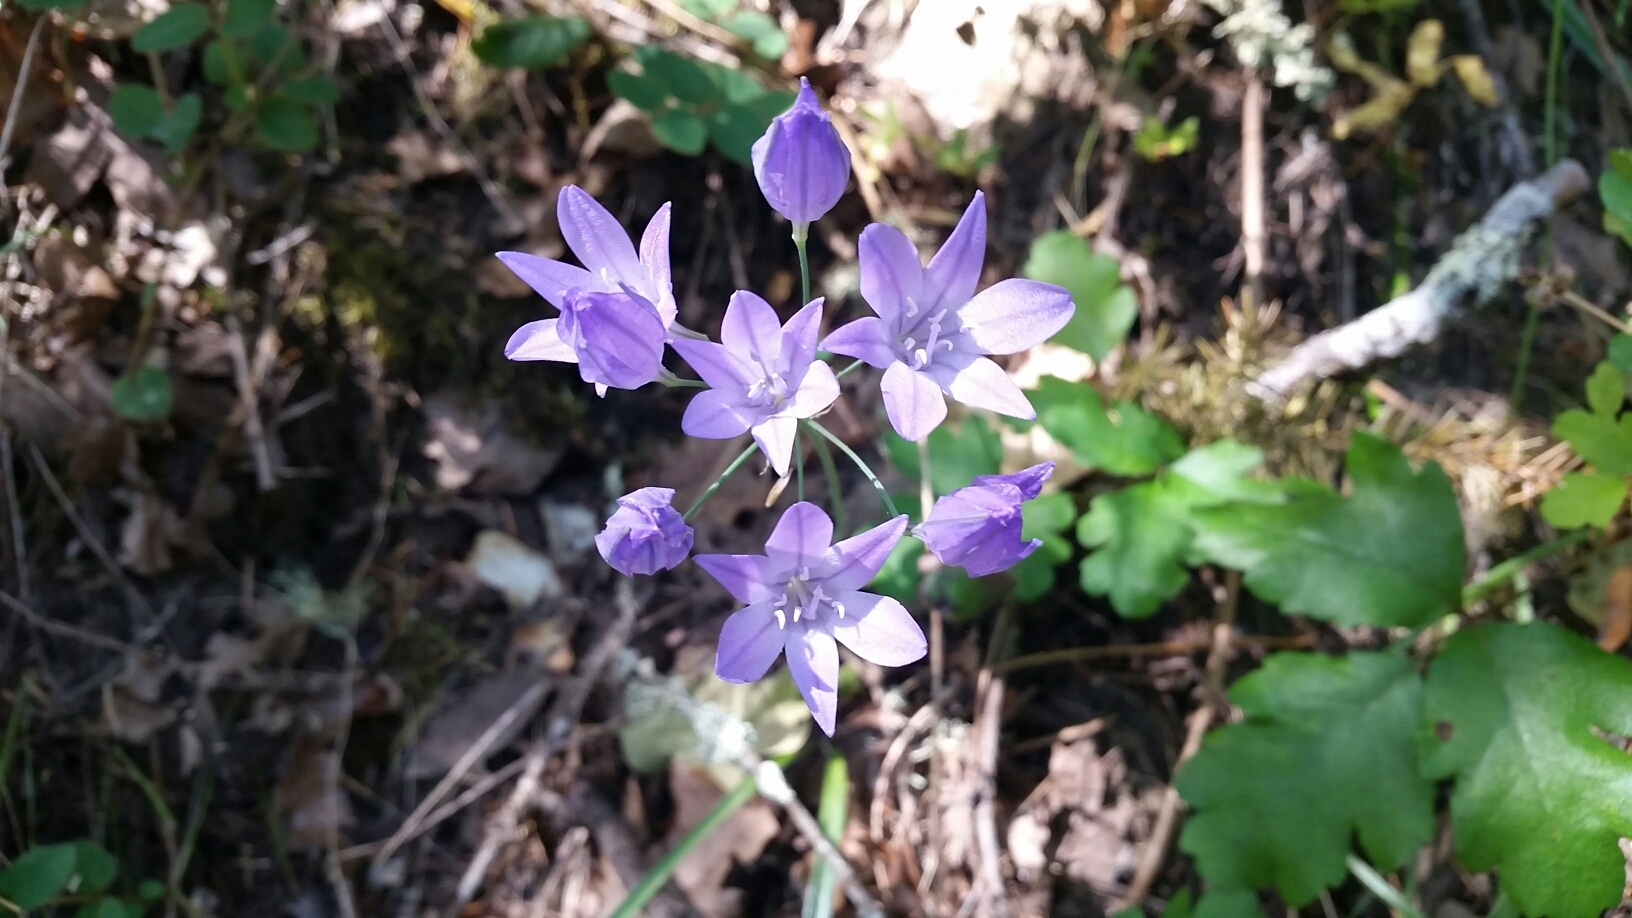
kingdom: Plantae
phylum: Tracheophyta
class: Liliopsida
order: Asparagales
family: Asparagaceae
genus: Triteleia
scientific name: Triteleia laxa
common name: Triplet-lily
